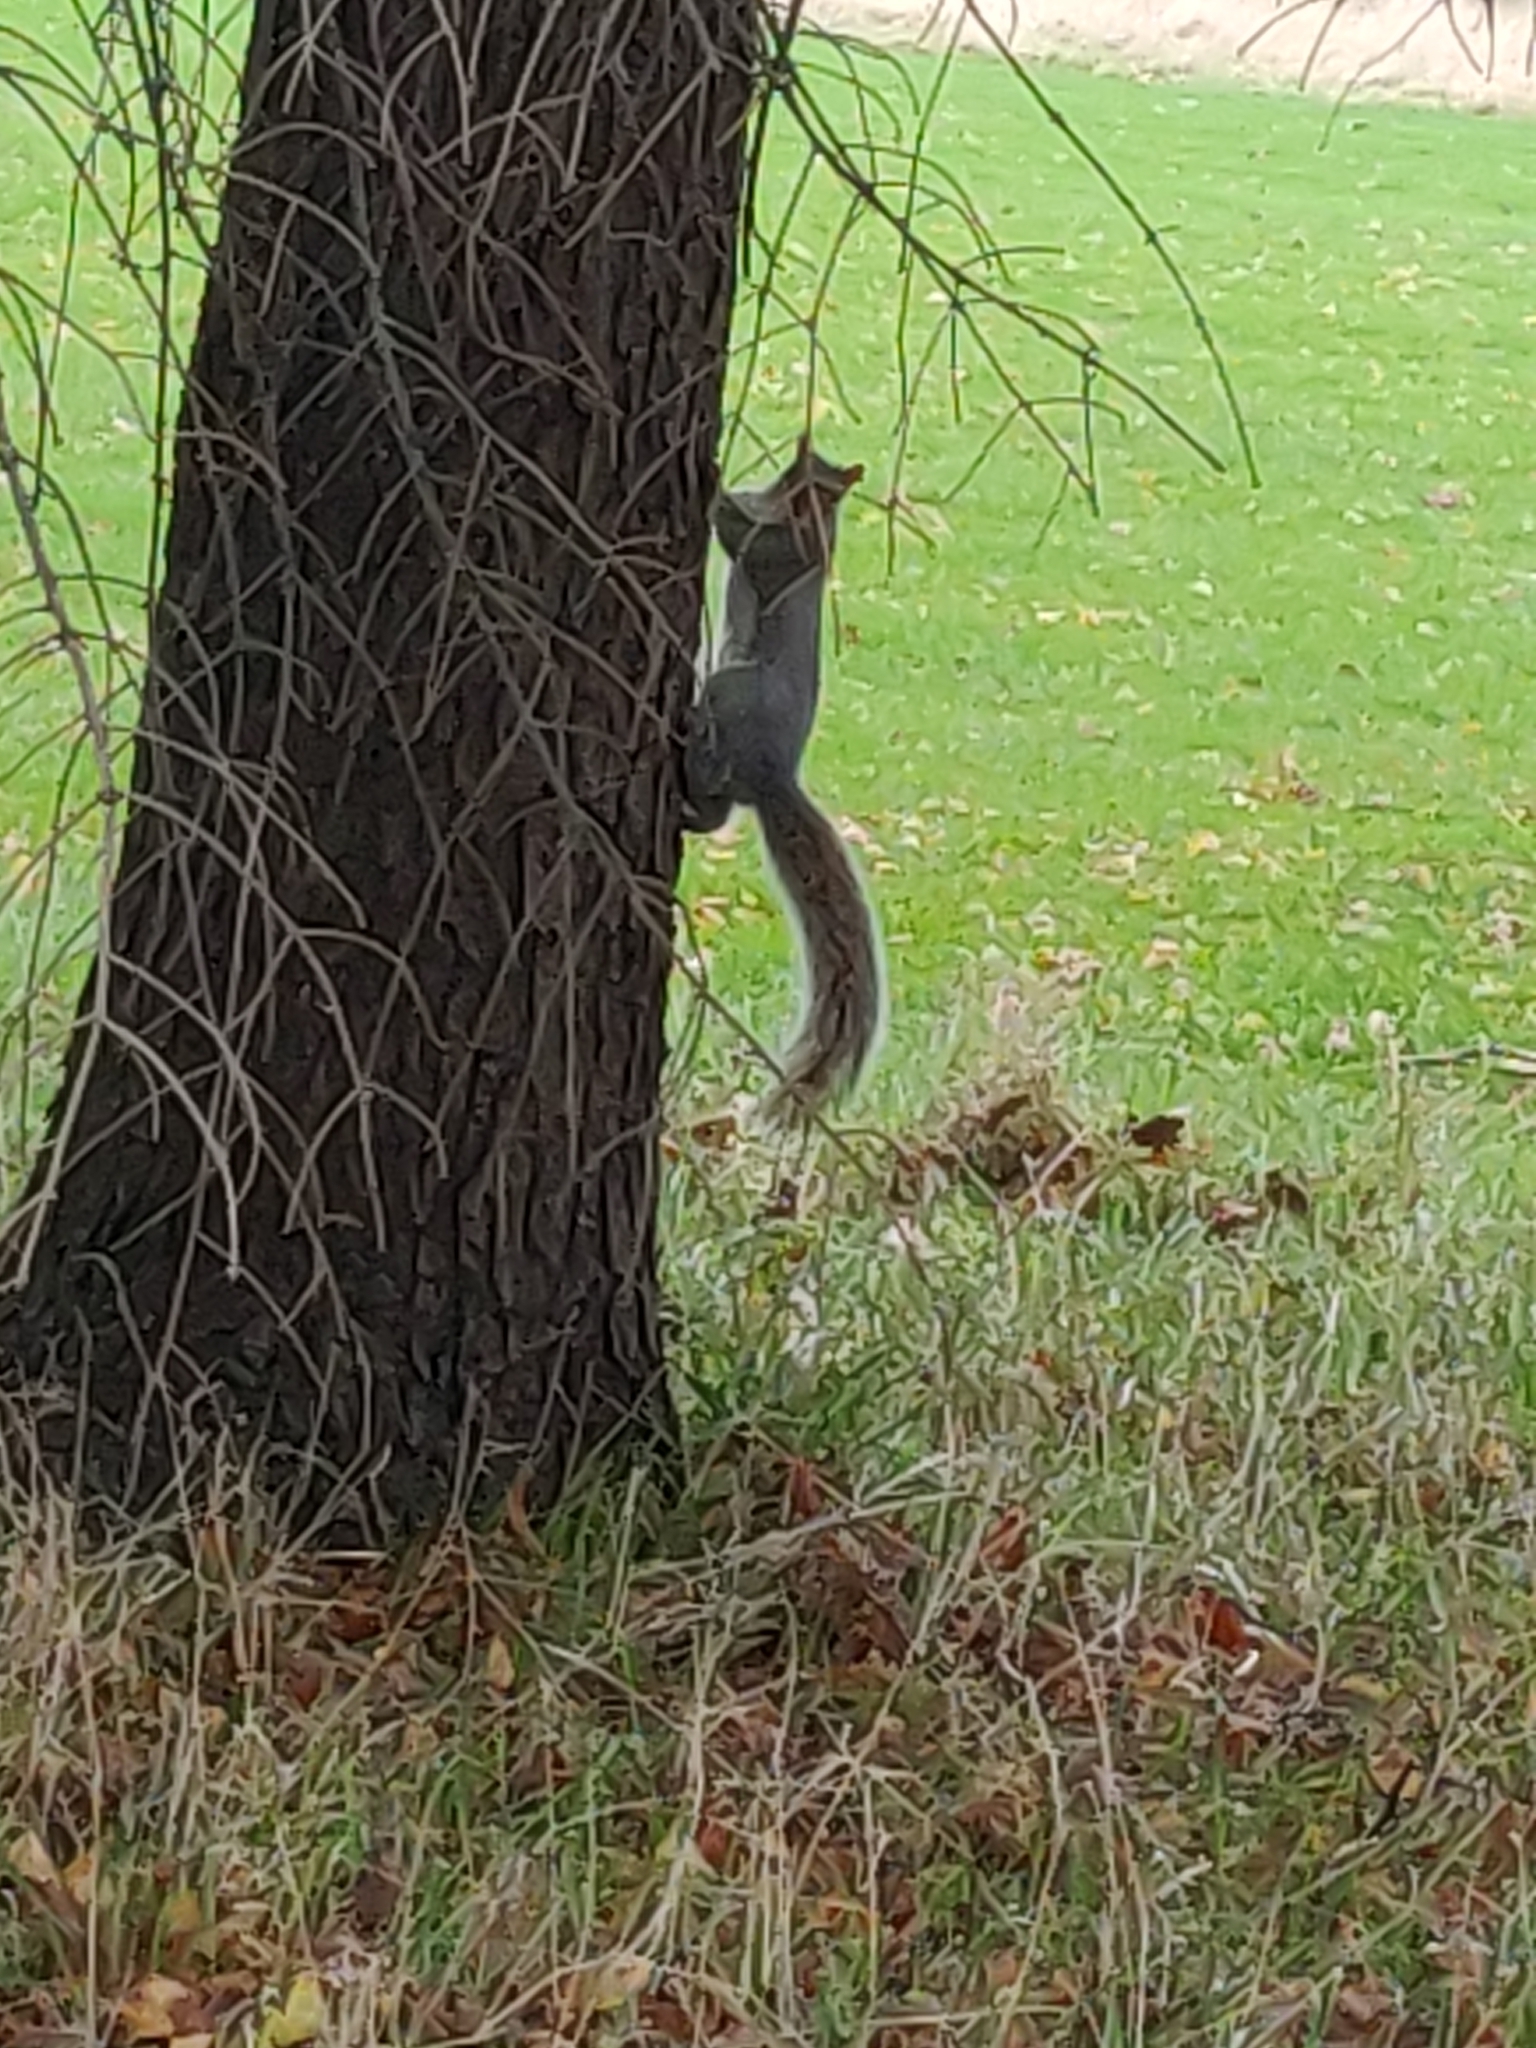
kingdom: Animalia
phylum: Chordata
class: Mammalia
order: Rodentia
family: Sciuridae
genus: Sciurus
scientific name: Sciurus carolinensis
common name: Eastern gray squirrel
